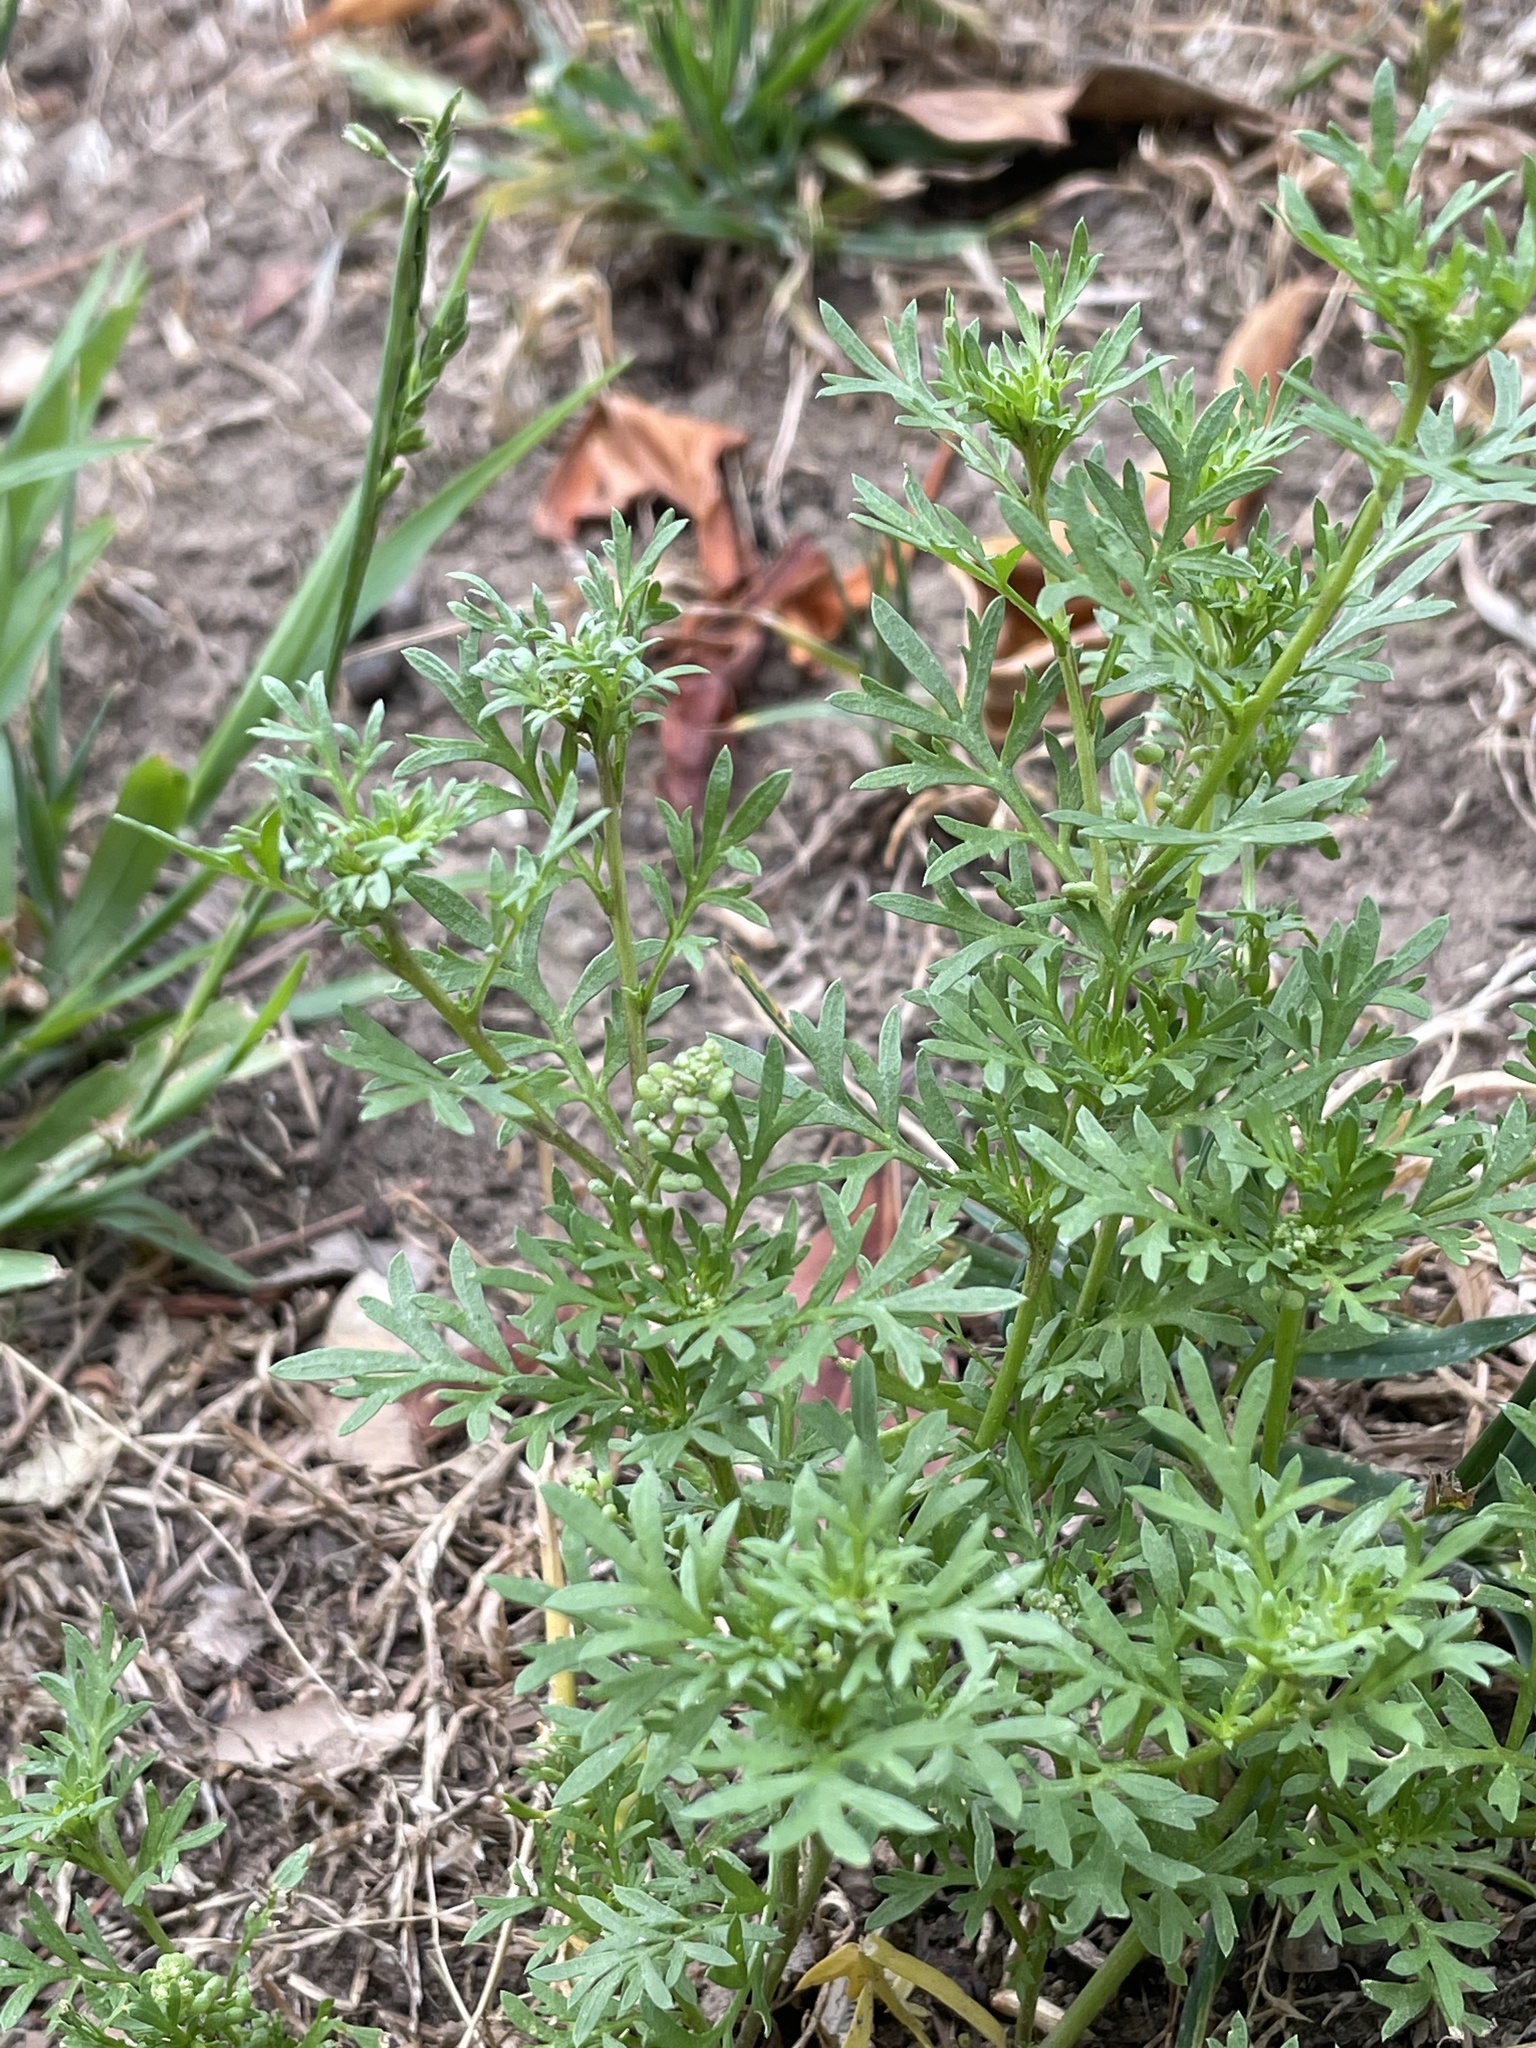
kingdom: Plantae
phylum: Tracheophyta
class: Magnoliopsida
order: Brassicales
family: Brassicaceae
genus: Lepidium
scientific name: Lepidium didymum
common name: Lesser swinecress
